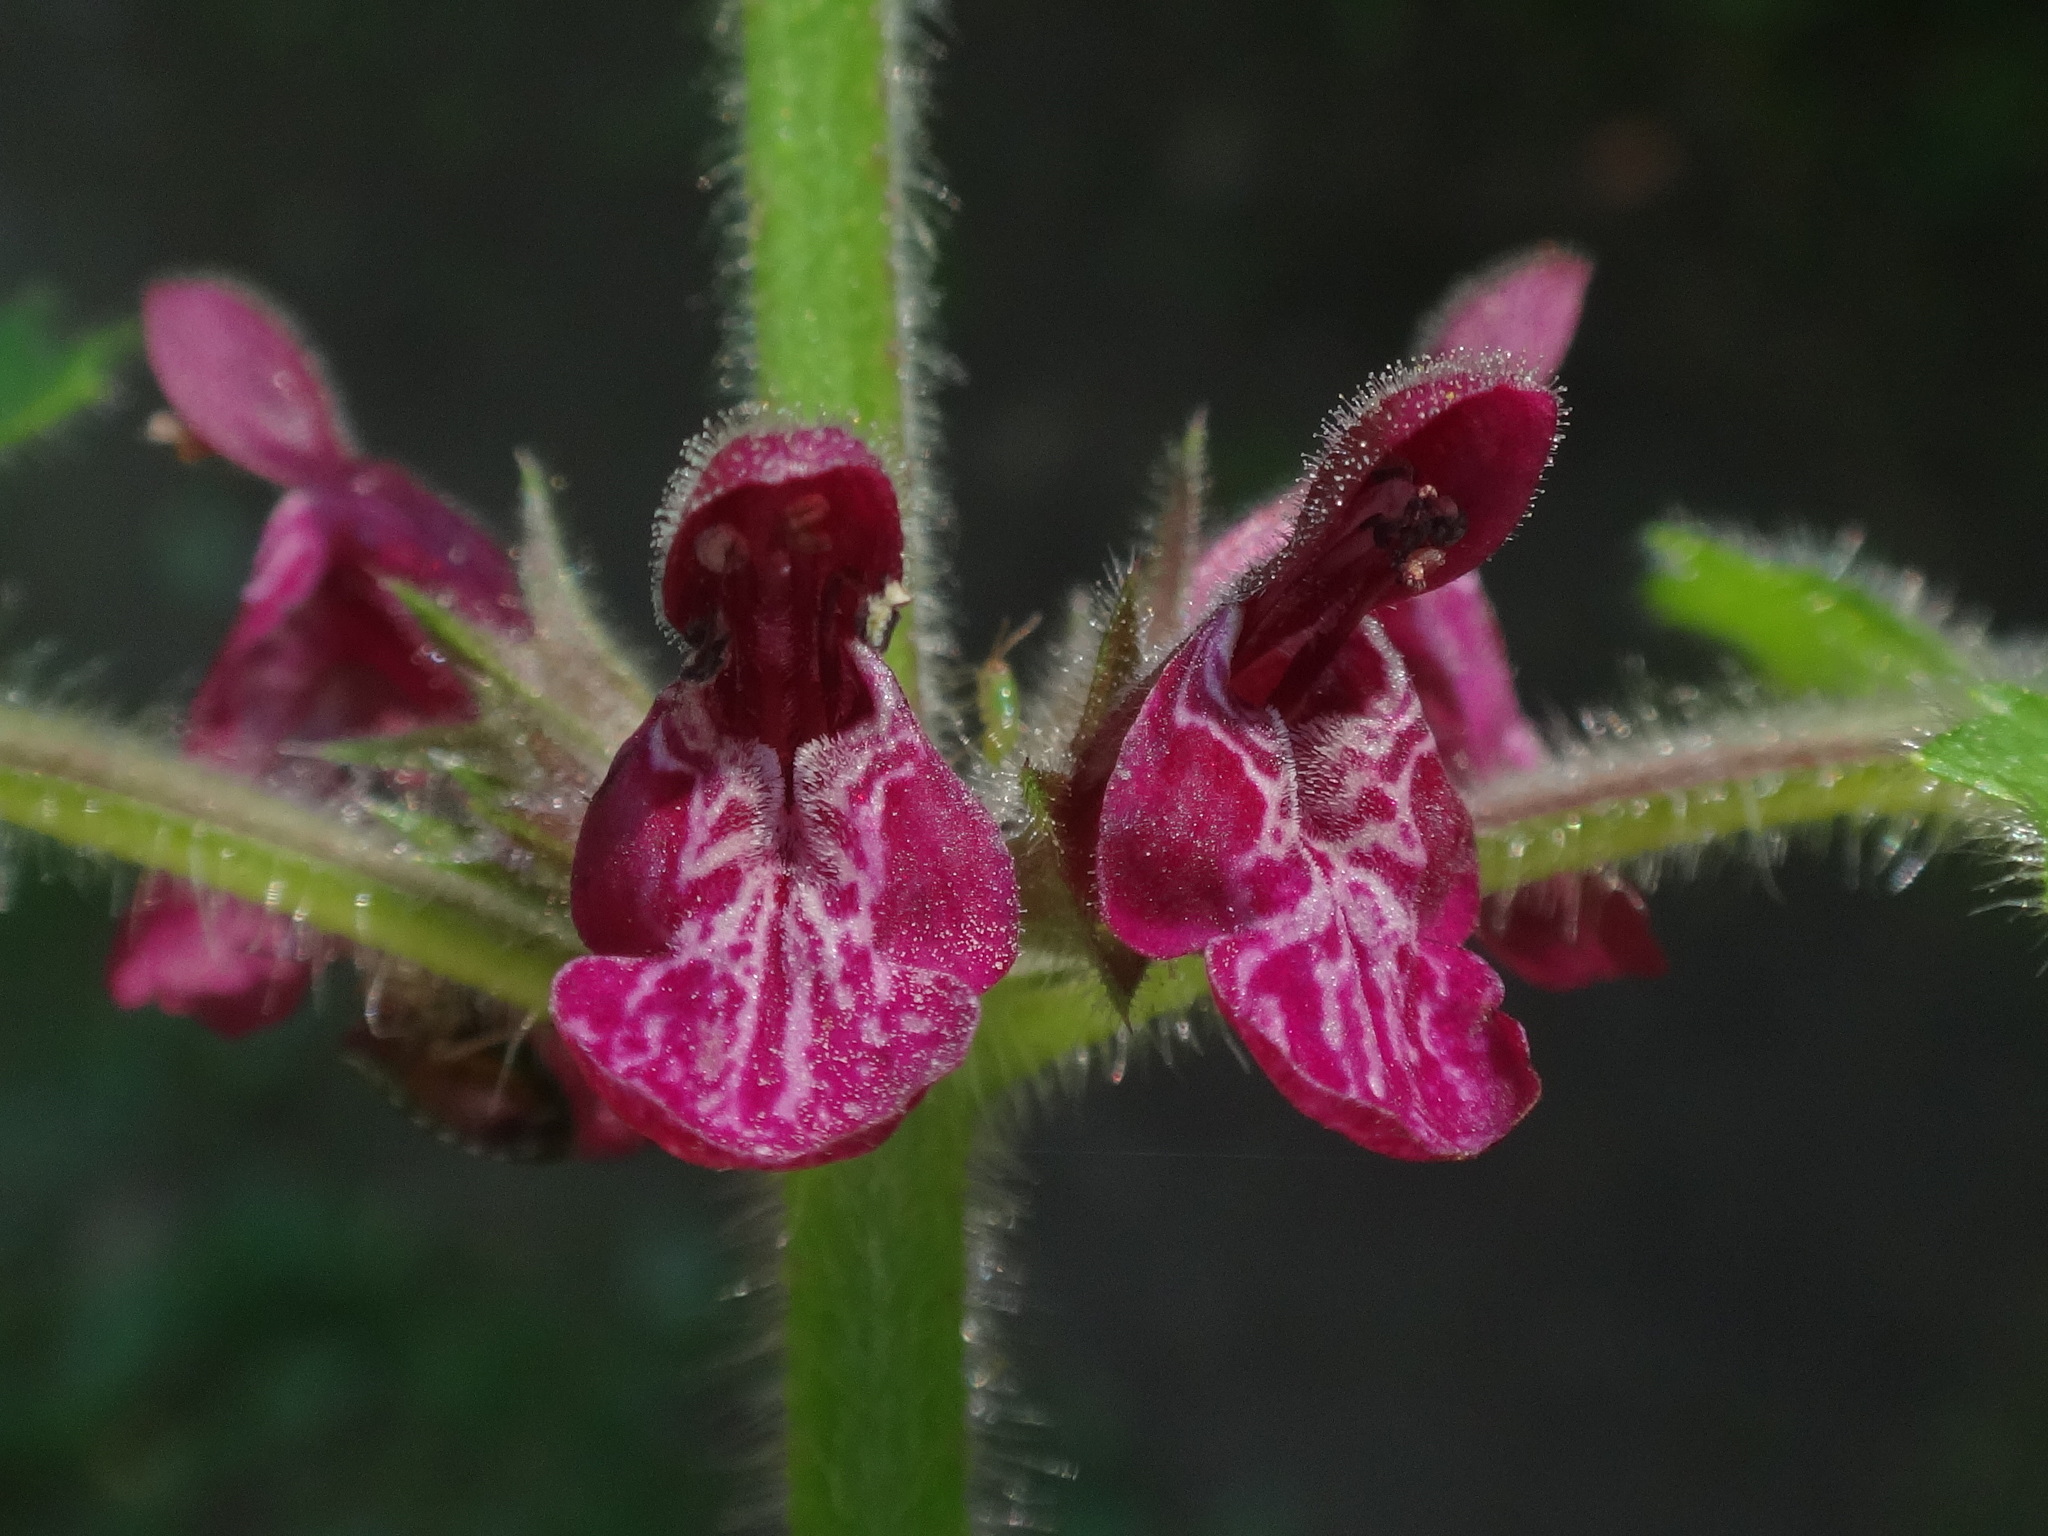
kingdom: Plantae
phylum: Tracheophyta
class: Magnoliopsida
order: Lamiales
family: Lamiaceae
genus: Stachys
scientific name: Stachys sylvatica
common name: Hedge woundwort
